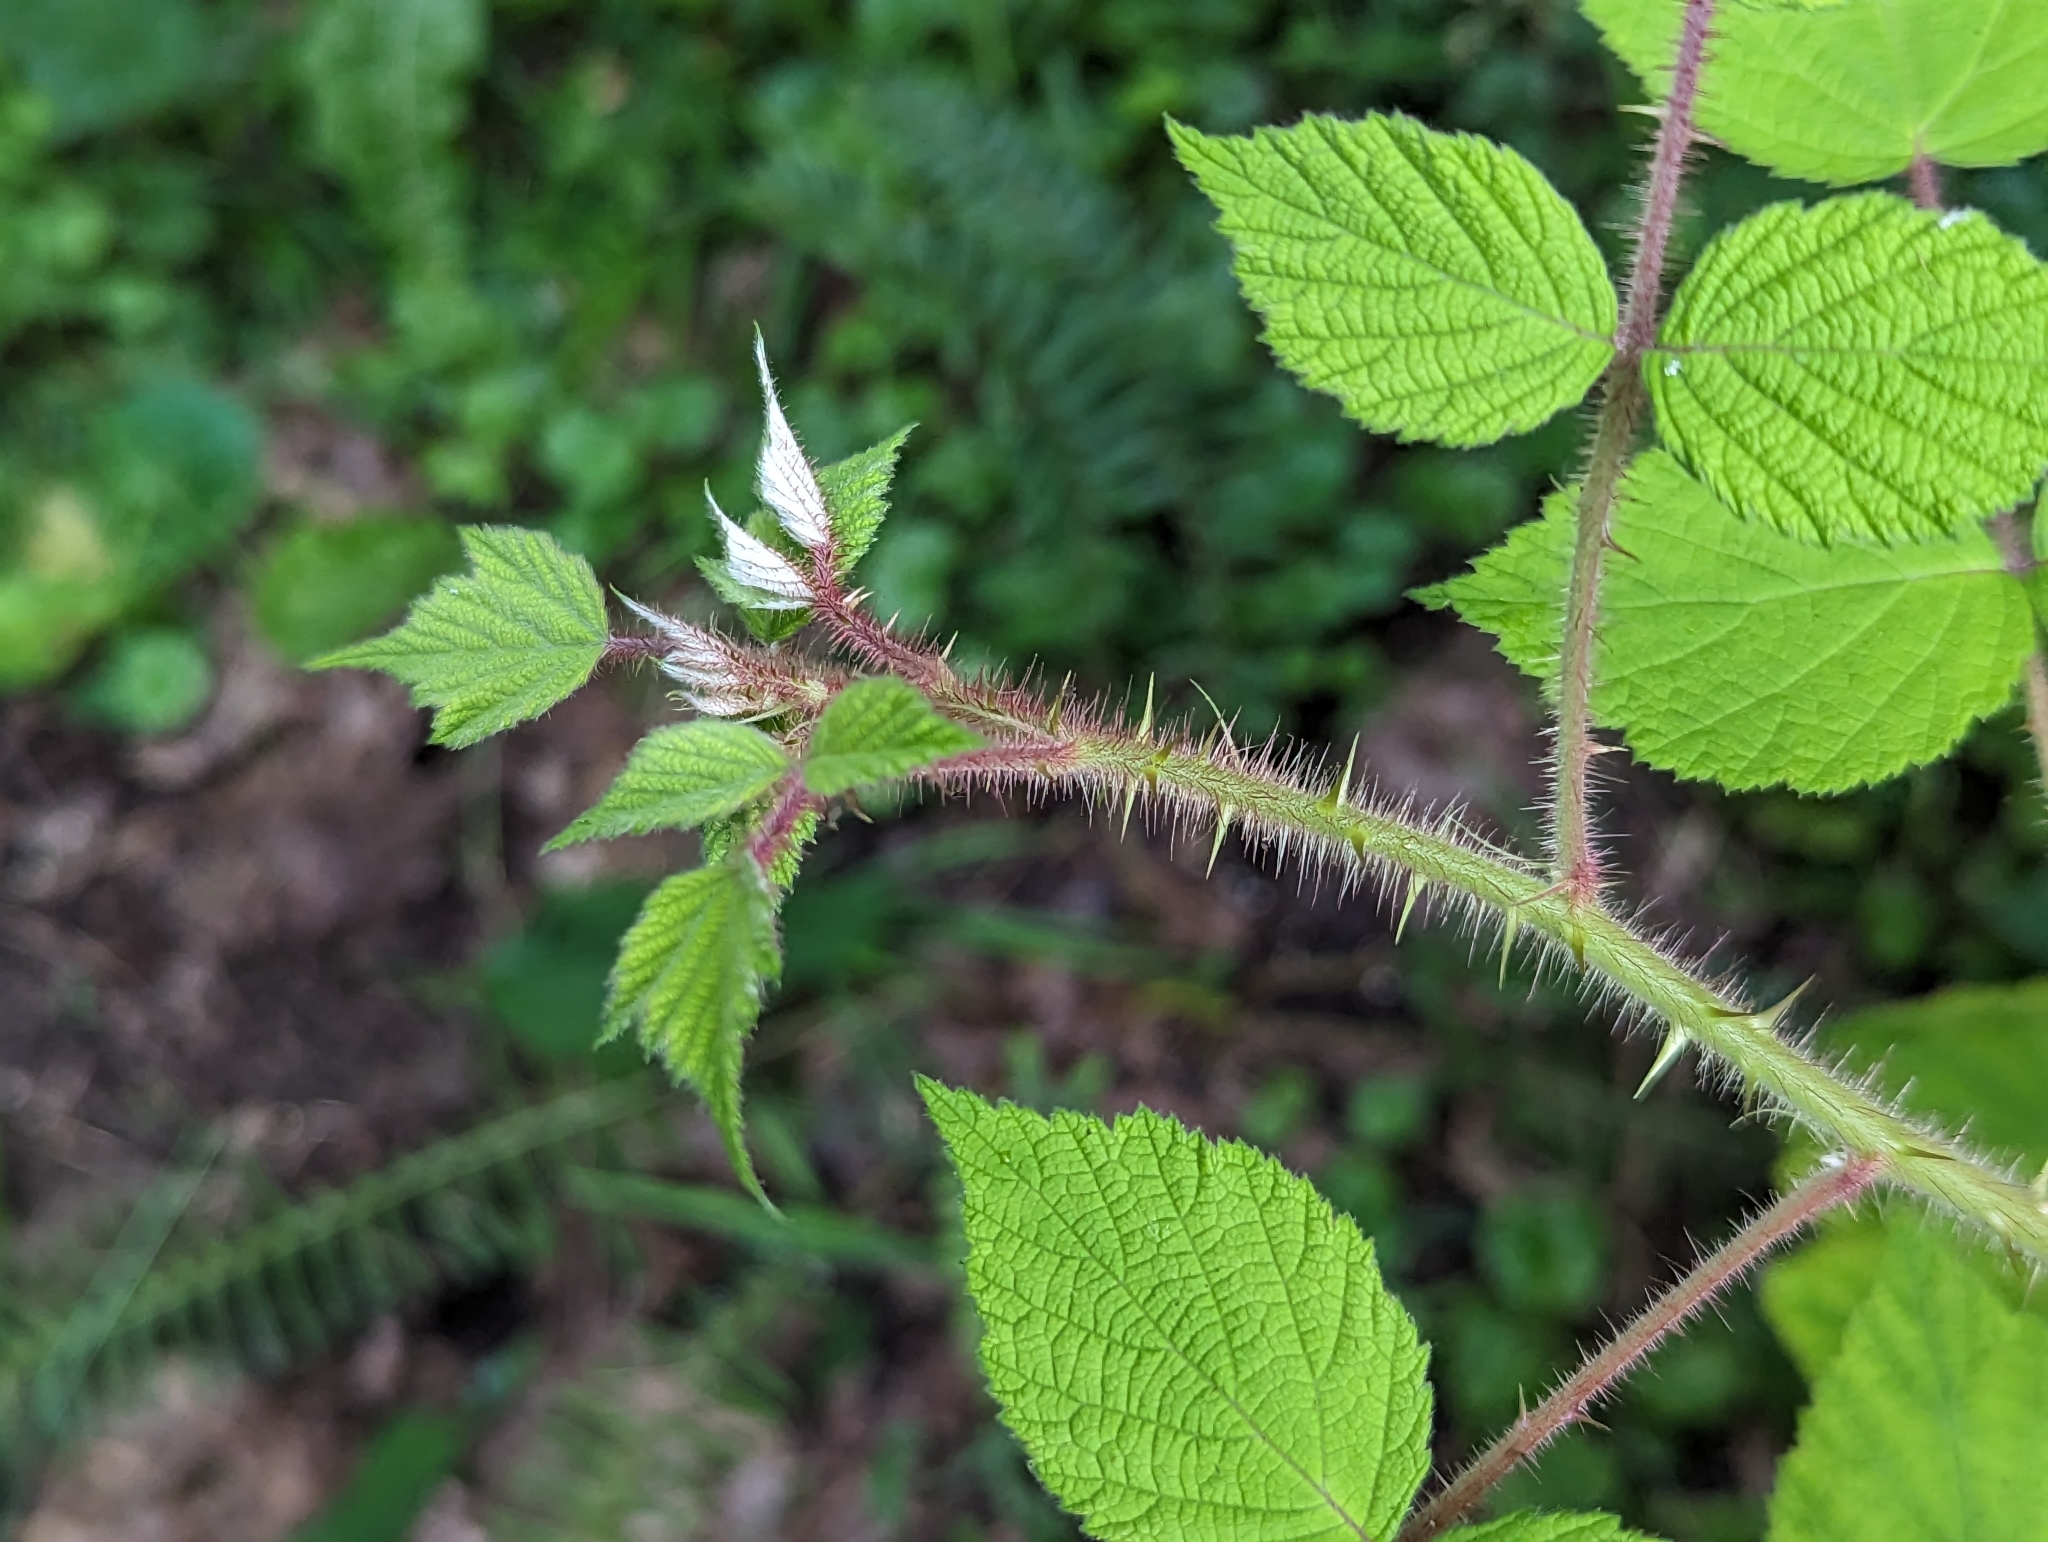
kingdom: Plantae
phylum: Tracheophyta
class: Magnoliopsida
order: Rosales
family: Rosaceae
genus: Rubus
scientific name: Rubus phoenicolasius
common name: Japanese wineberry
